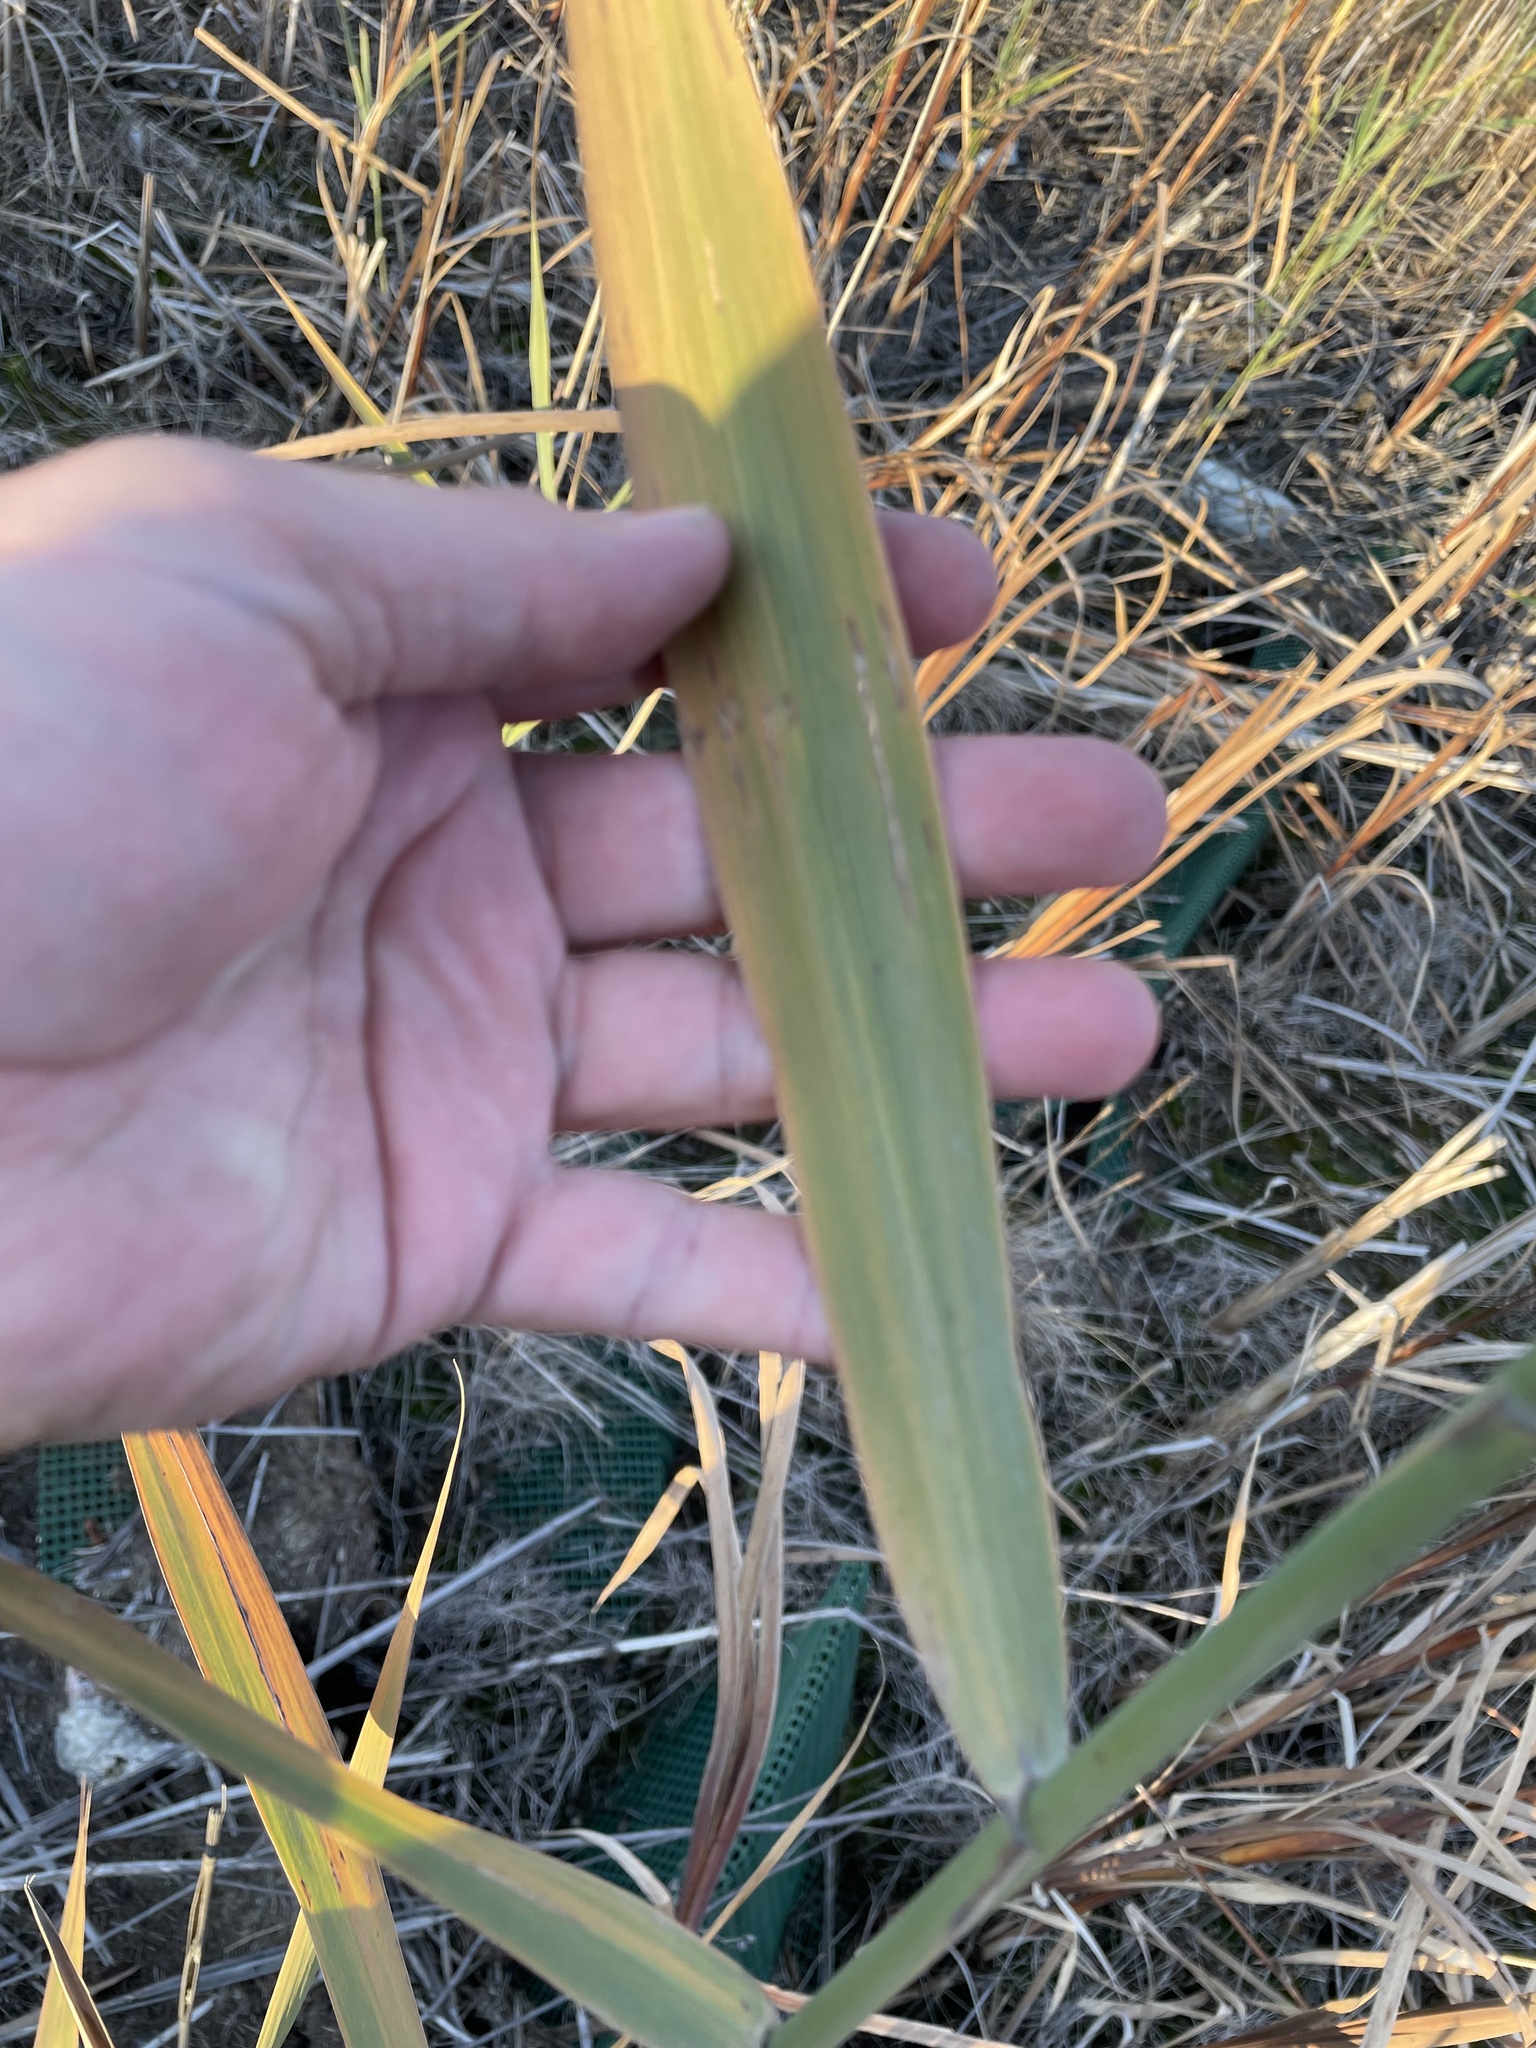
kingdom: Plantae
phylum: Tracheophyta
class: Liliopsida
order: Poales
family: Poaceae
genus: Phragmites
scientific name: Phragmites australis
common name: Common reed
